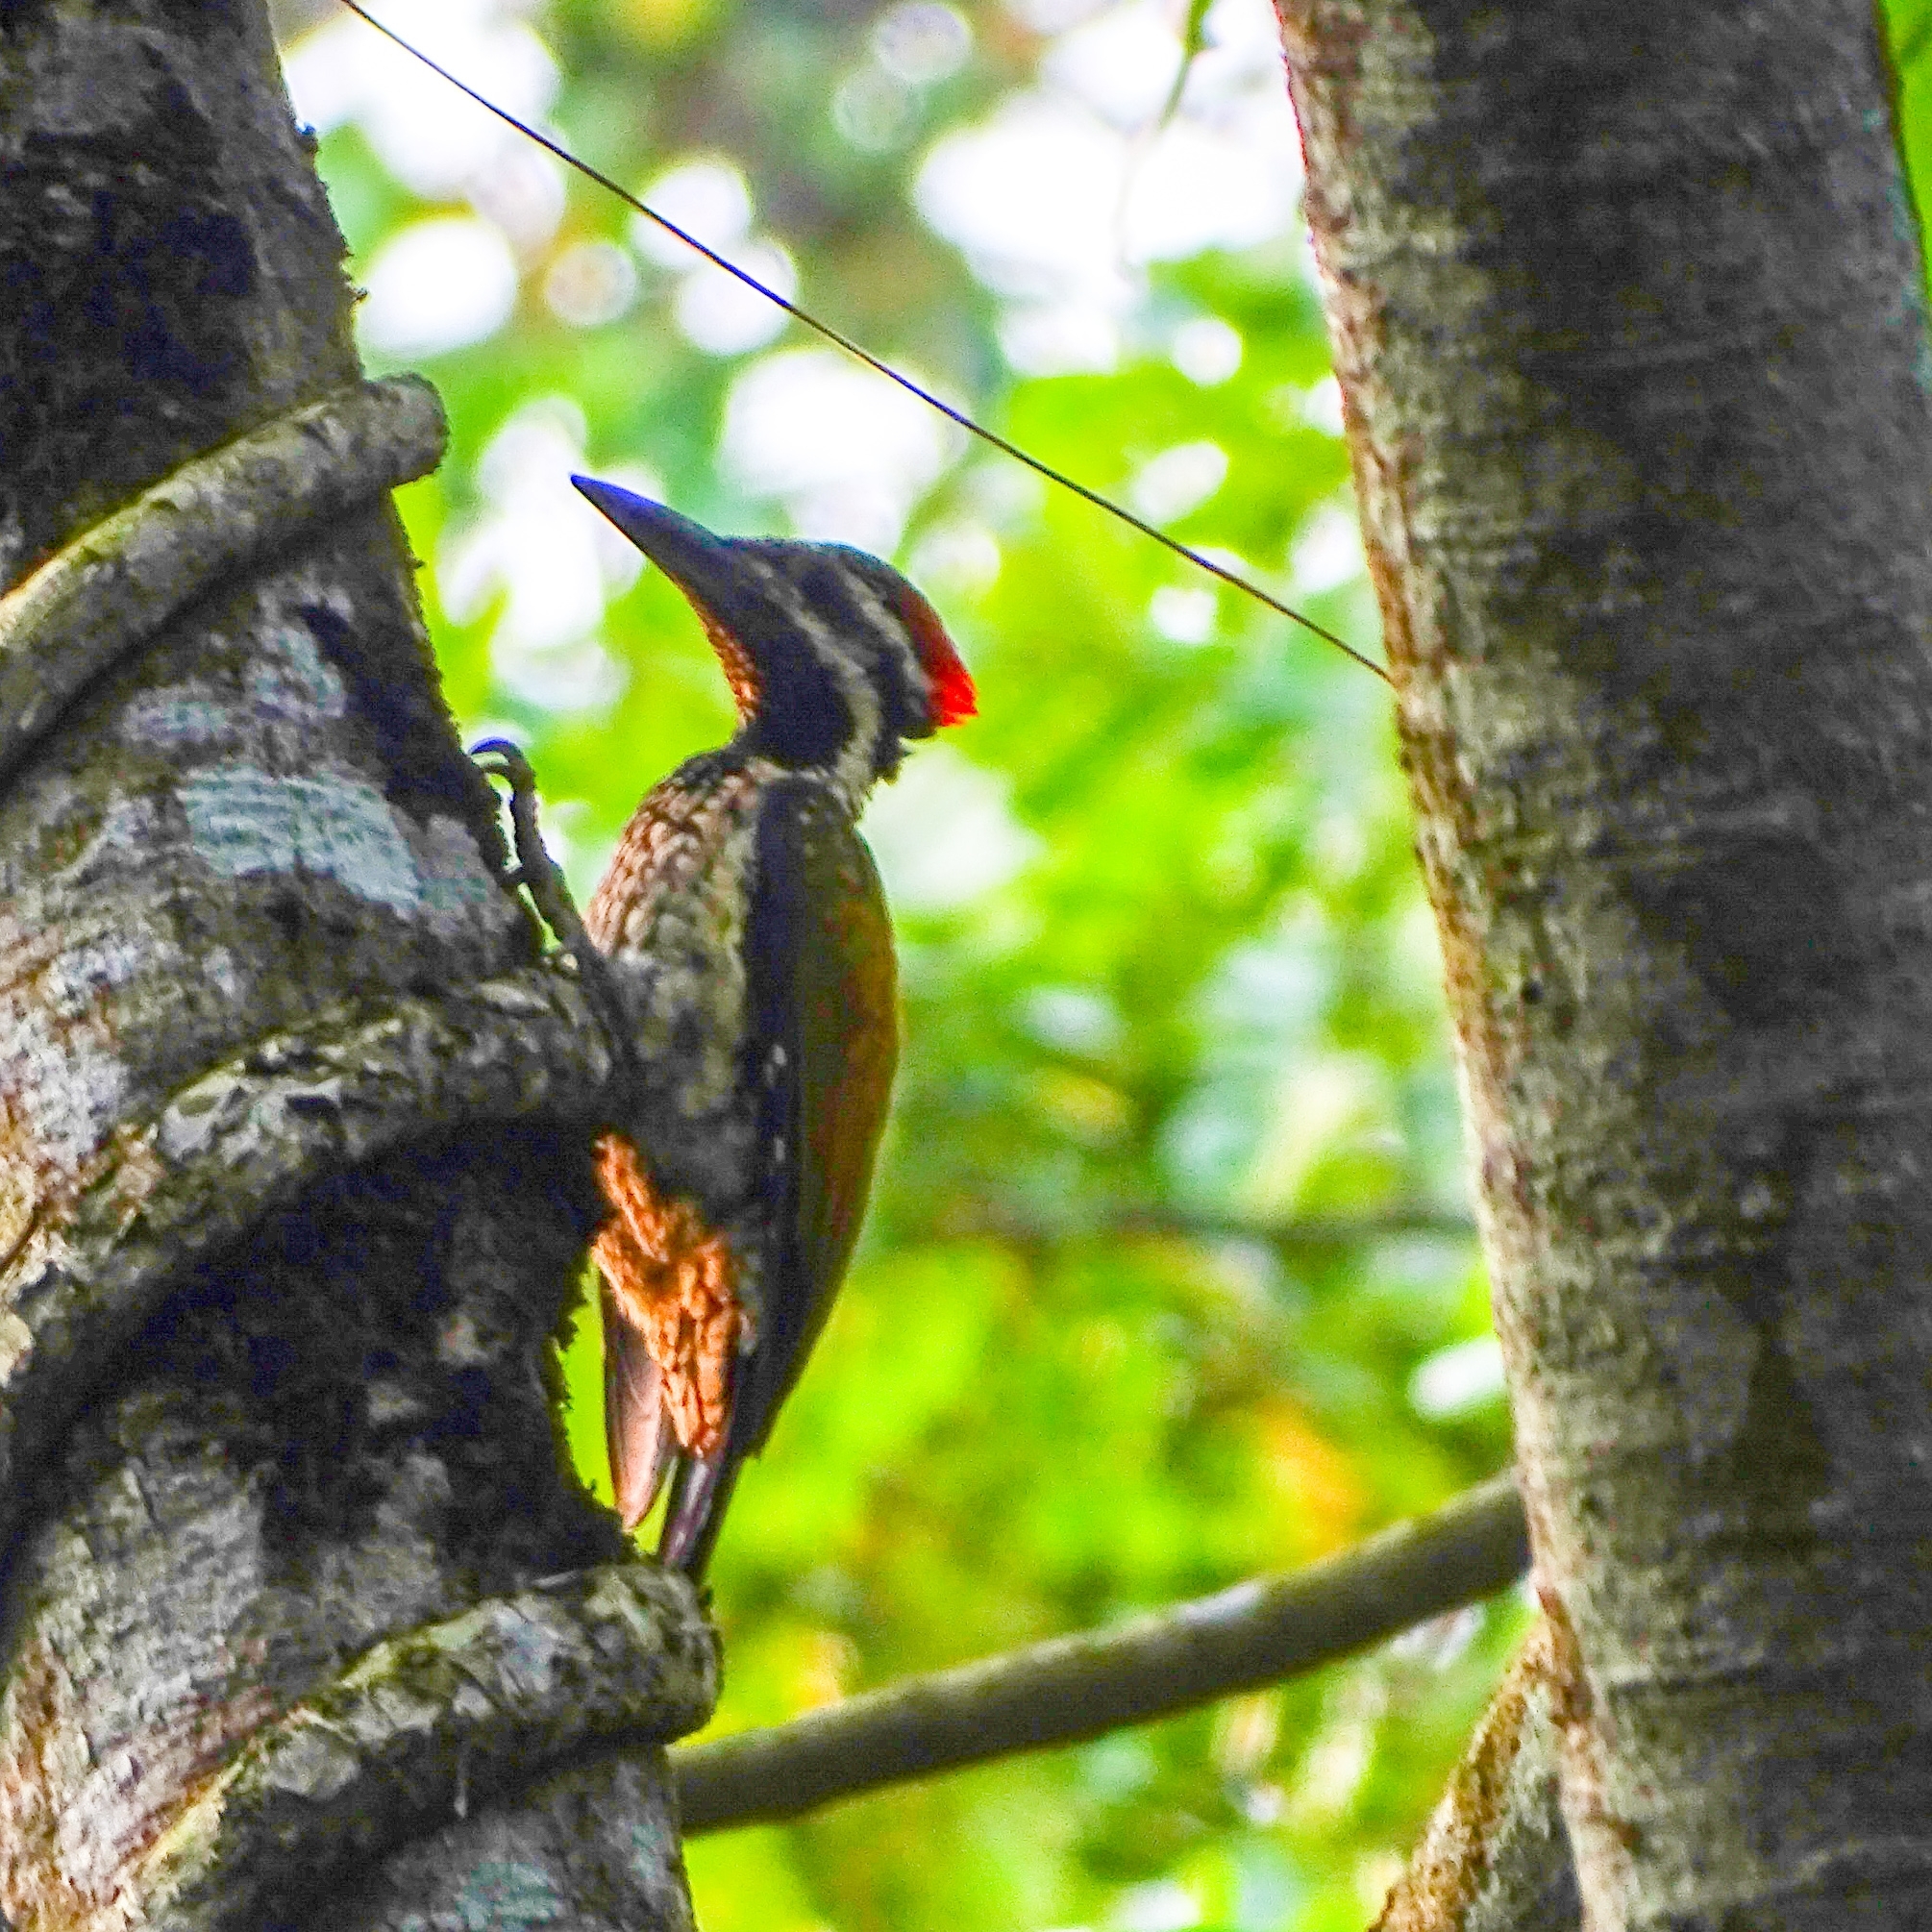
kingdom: Animalia
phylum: Chordata
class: Aves
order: Piciformes
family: Picidae
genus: Dinopium
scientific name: Dinopium benghalense
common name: Black-rumped flameback
